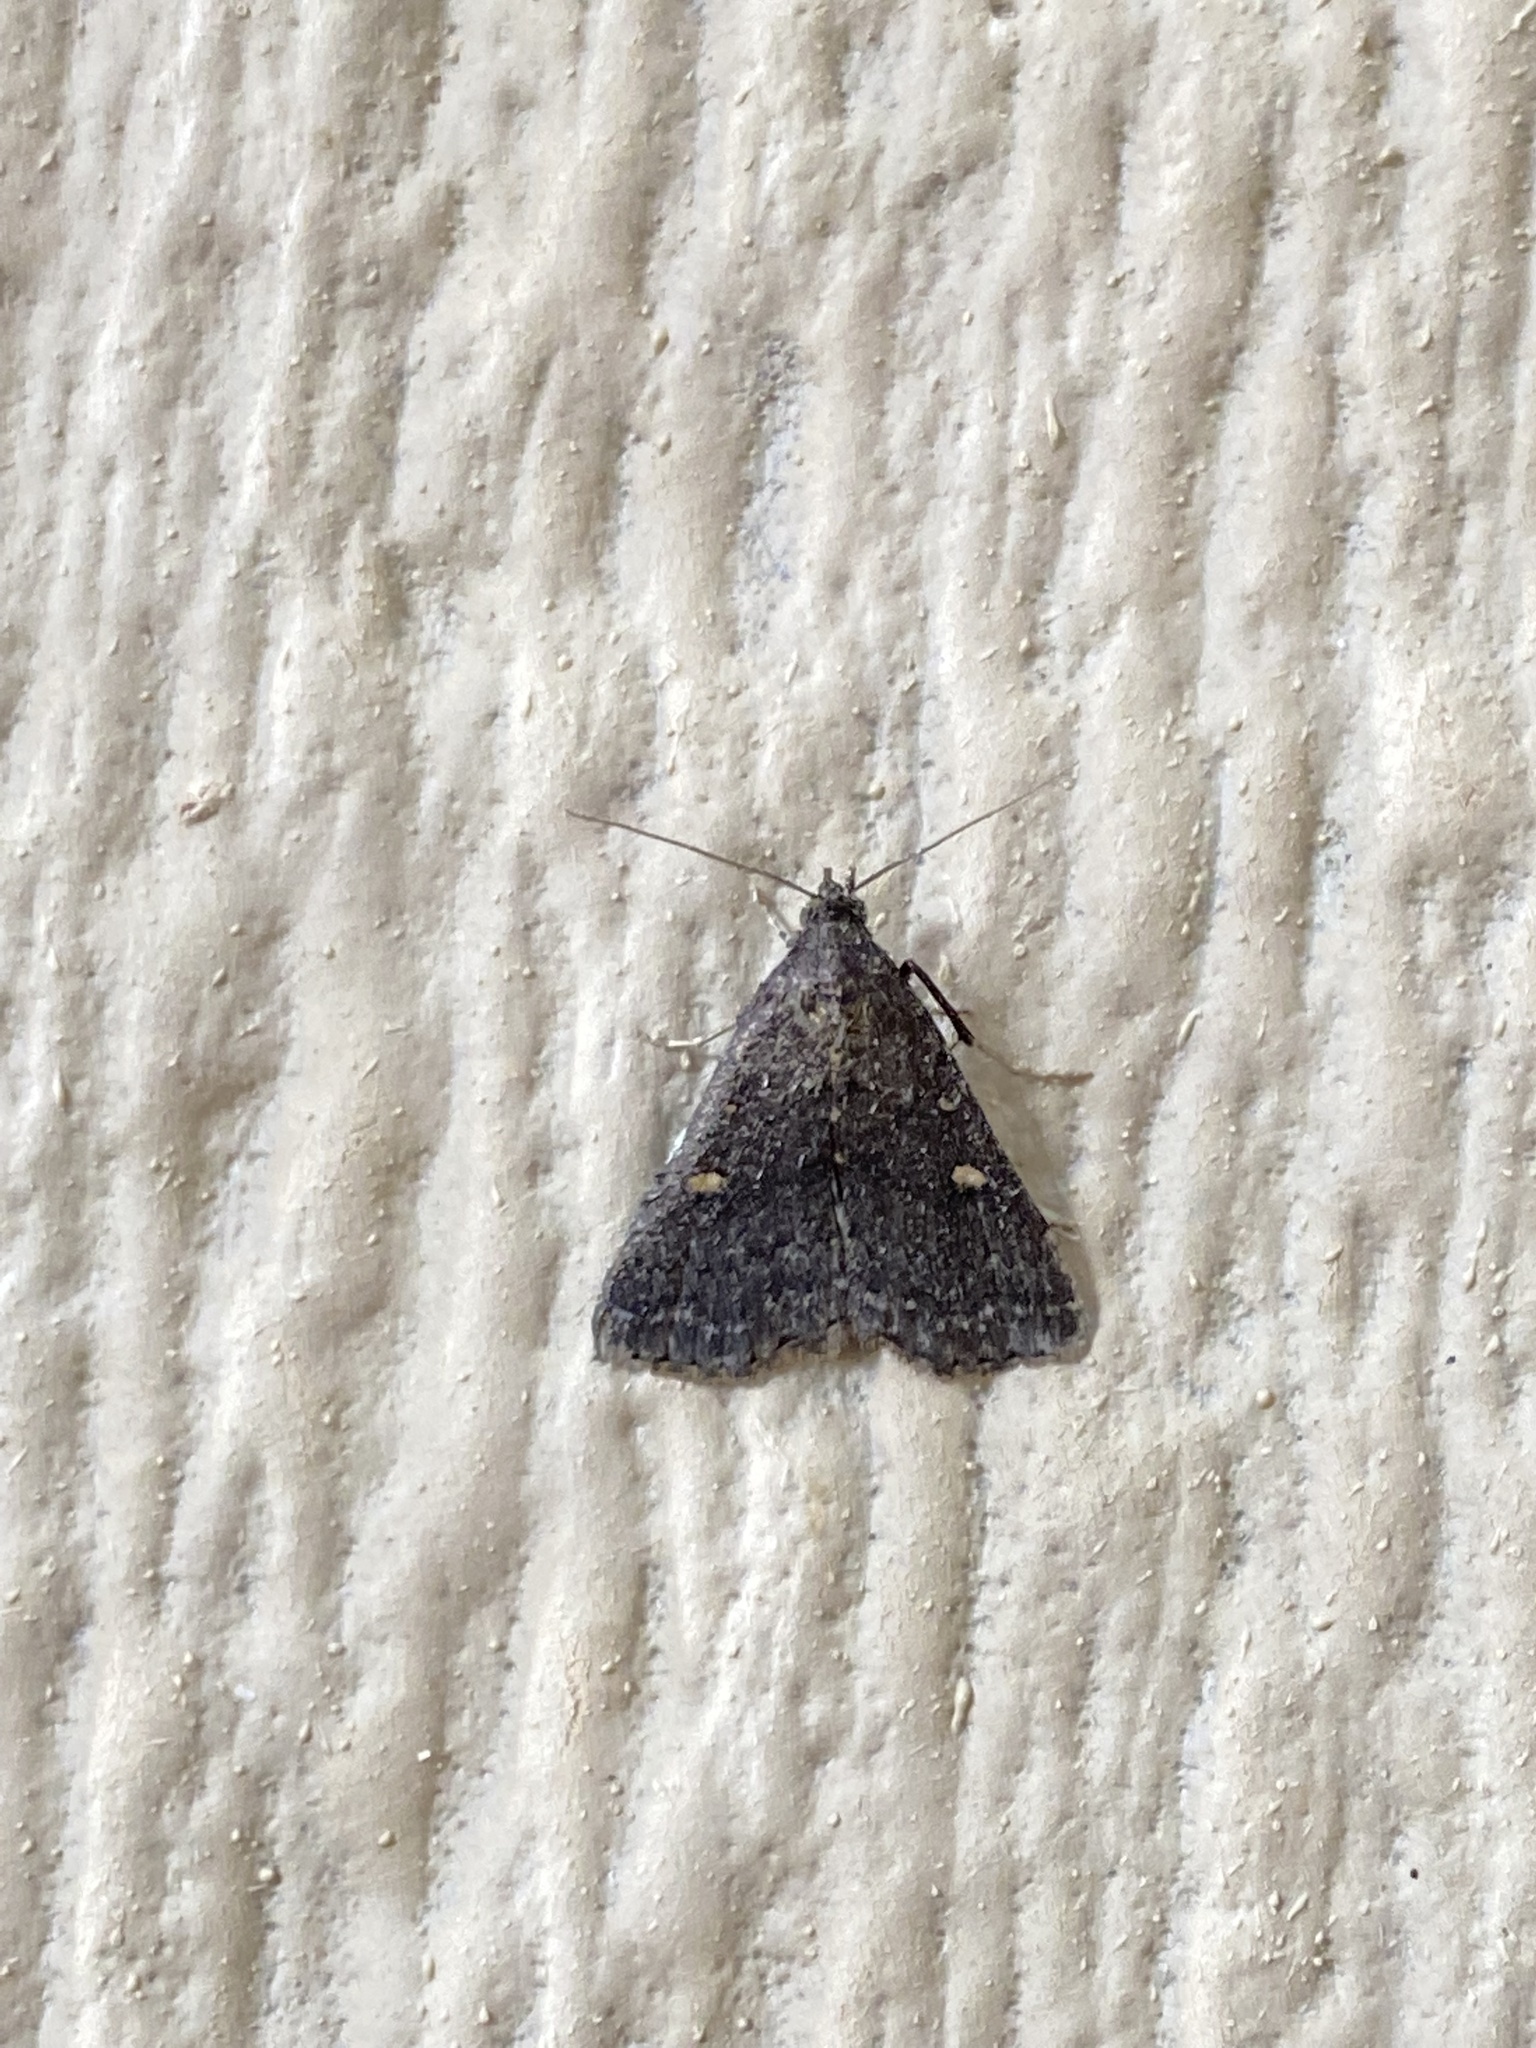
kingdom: Animalia
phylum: Arthropoda
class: Insecta
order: Lepidoptera
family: Erebidae
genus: Tetanolita
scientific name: Tetanolita mynesalis
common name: Smoky tetanolita moth
